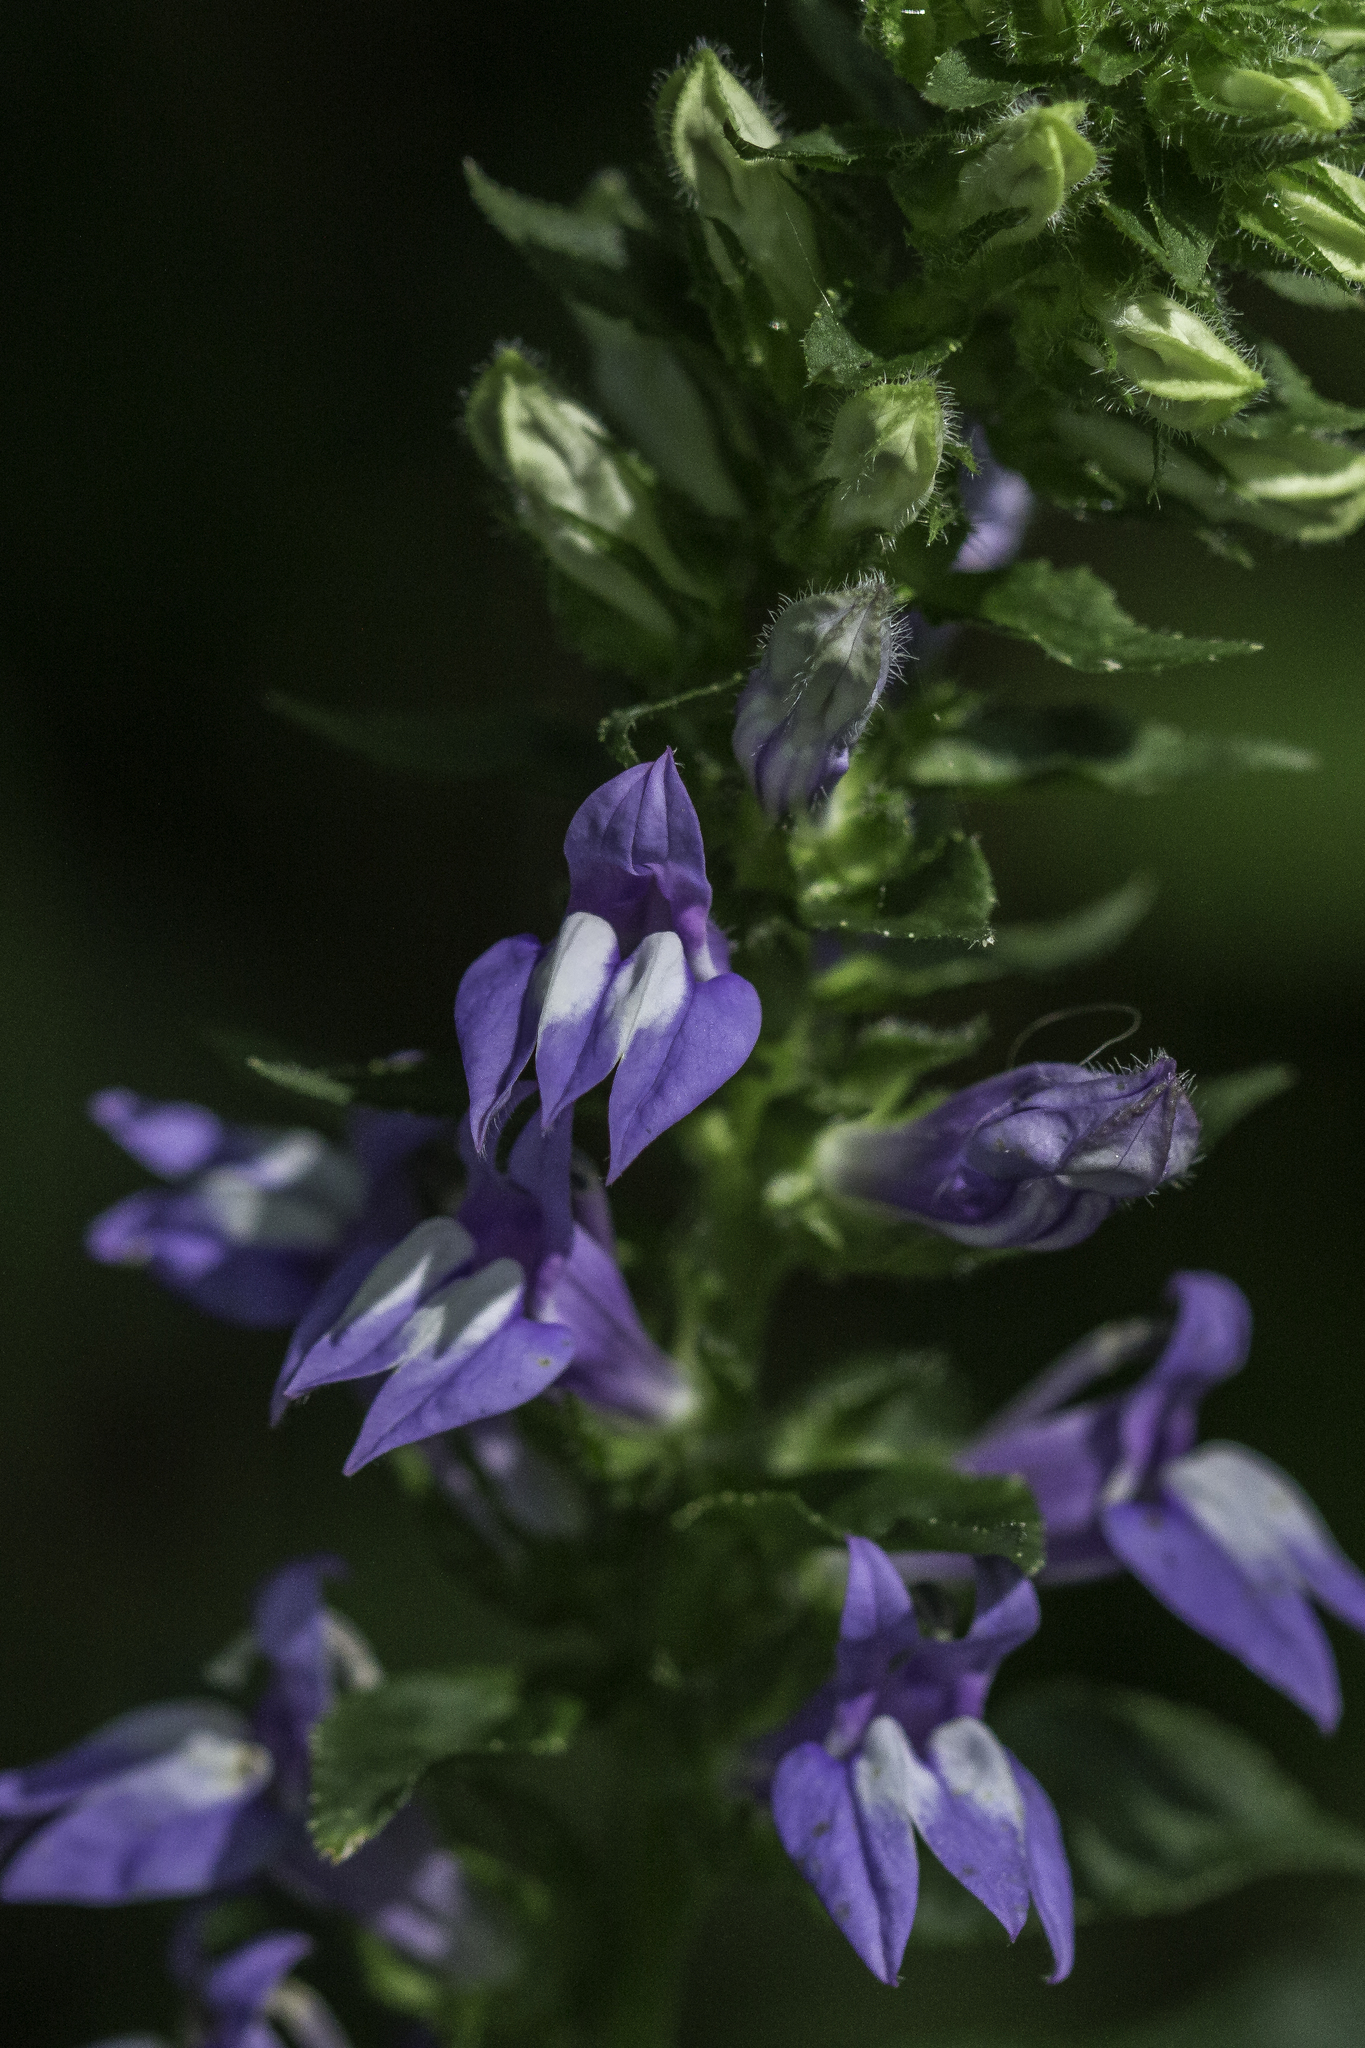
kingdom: Plantae
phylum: Tracheophyta
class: Magnoliopsida
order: Asterales
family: Campanulaceae
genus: Lobelia
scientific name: Lobelia siphilitica
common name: Great lobelia
